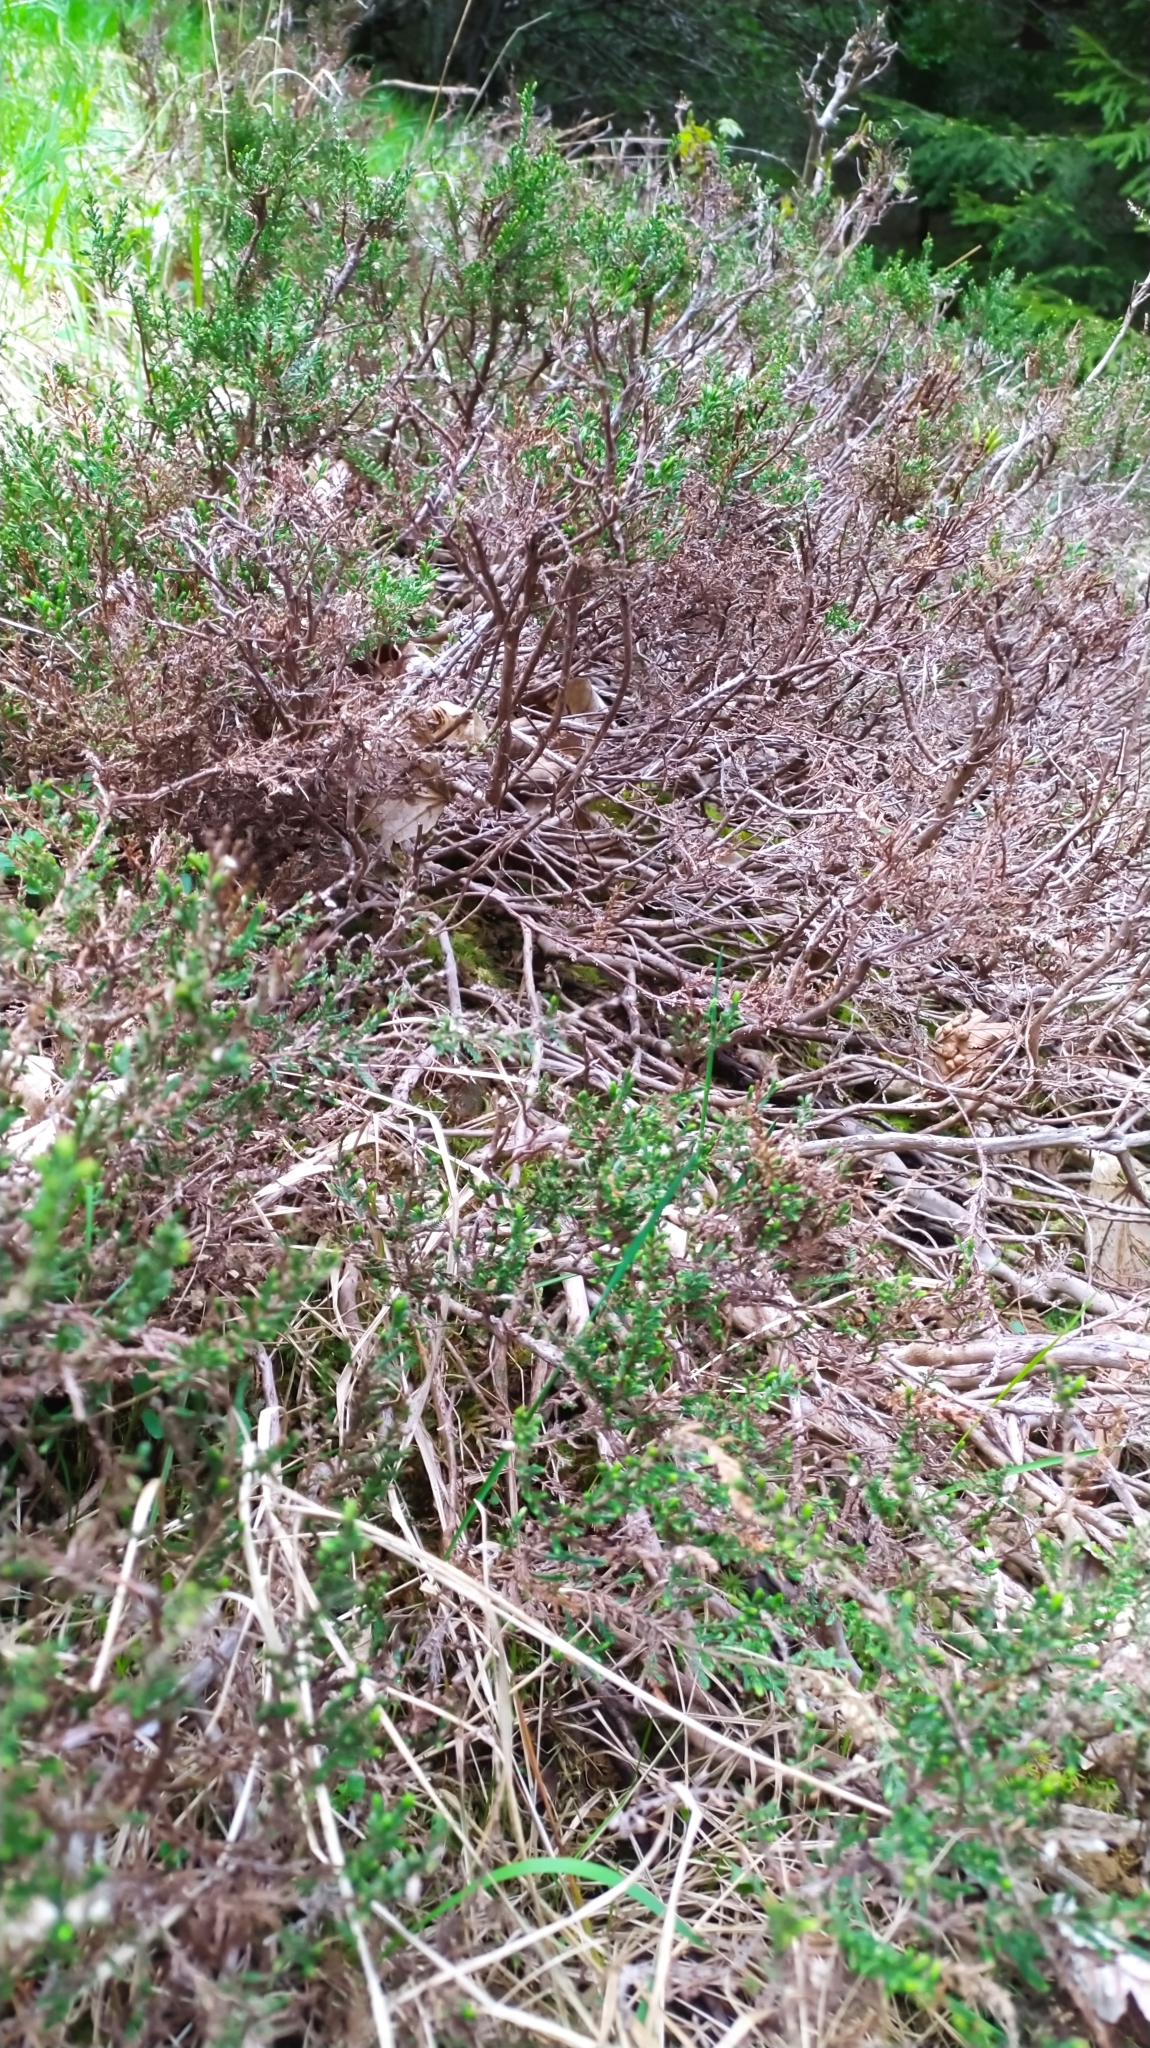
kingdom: Plantae
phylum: Tracheophyta
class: Magnoliopsida
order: Ericales
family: Ericaceae
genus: Calluna
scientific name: Calluna vulgaris
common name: Heather
